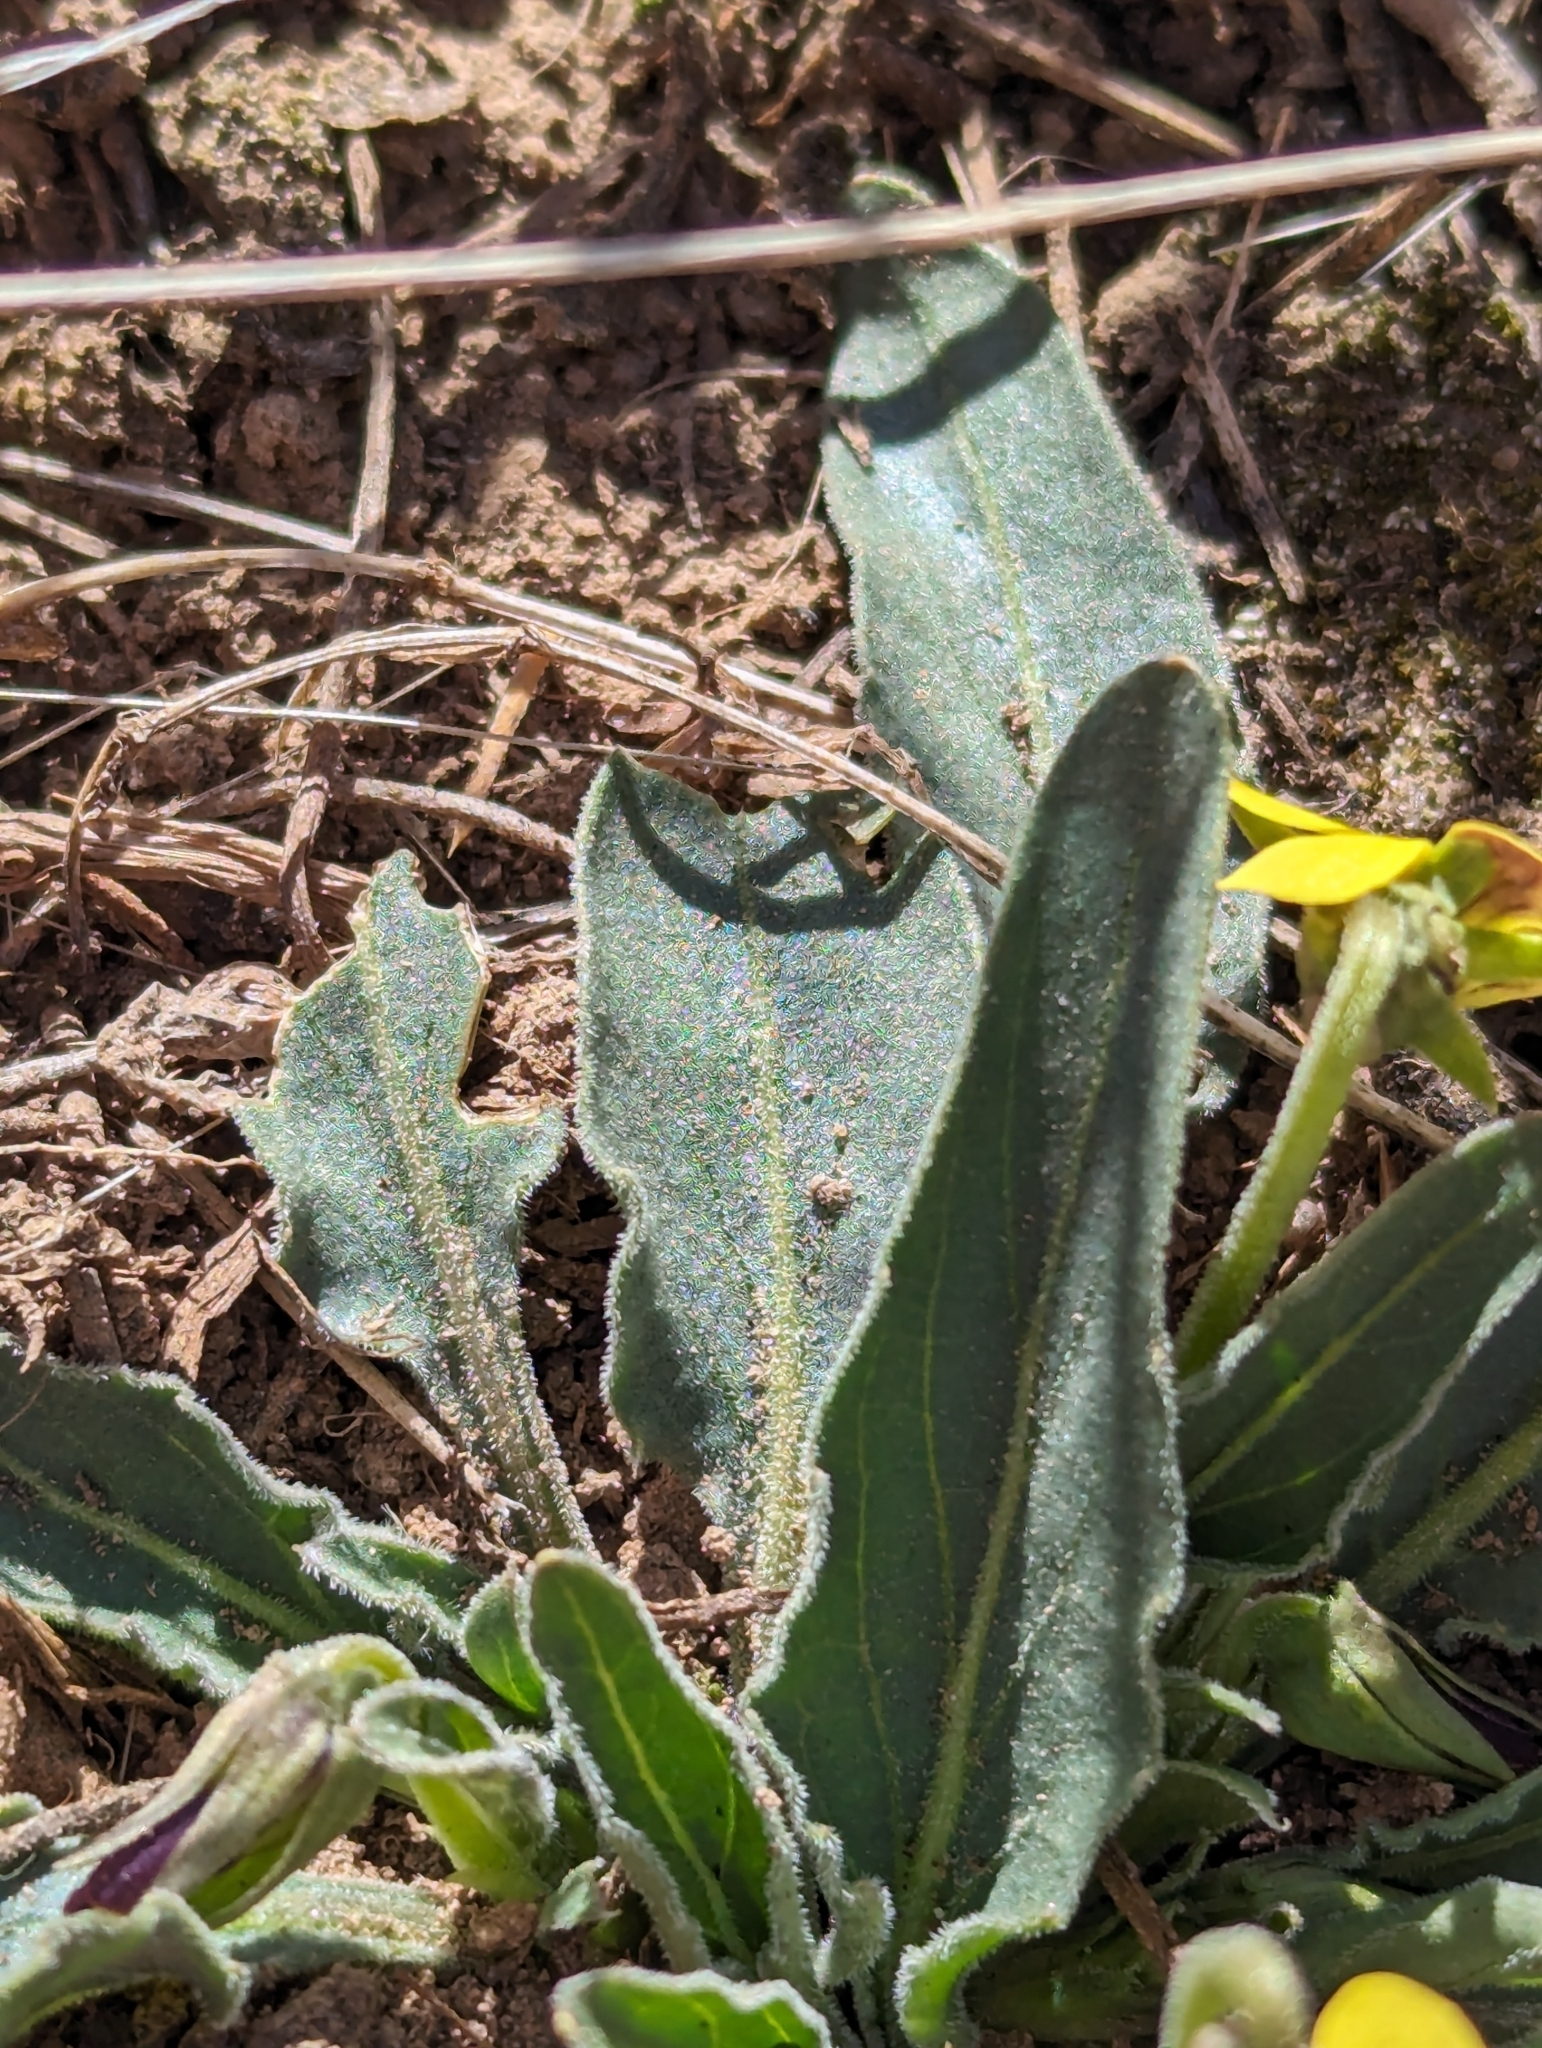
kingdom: Plantae
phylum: Tracheophyta
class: Magnoliopsida
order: Malpighiales
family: Violaceae
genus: Viola
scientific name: Viola nuttallii
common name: Yellow prairie violet
